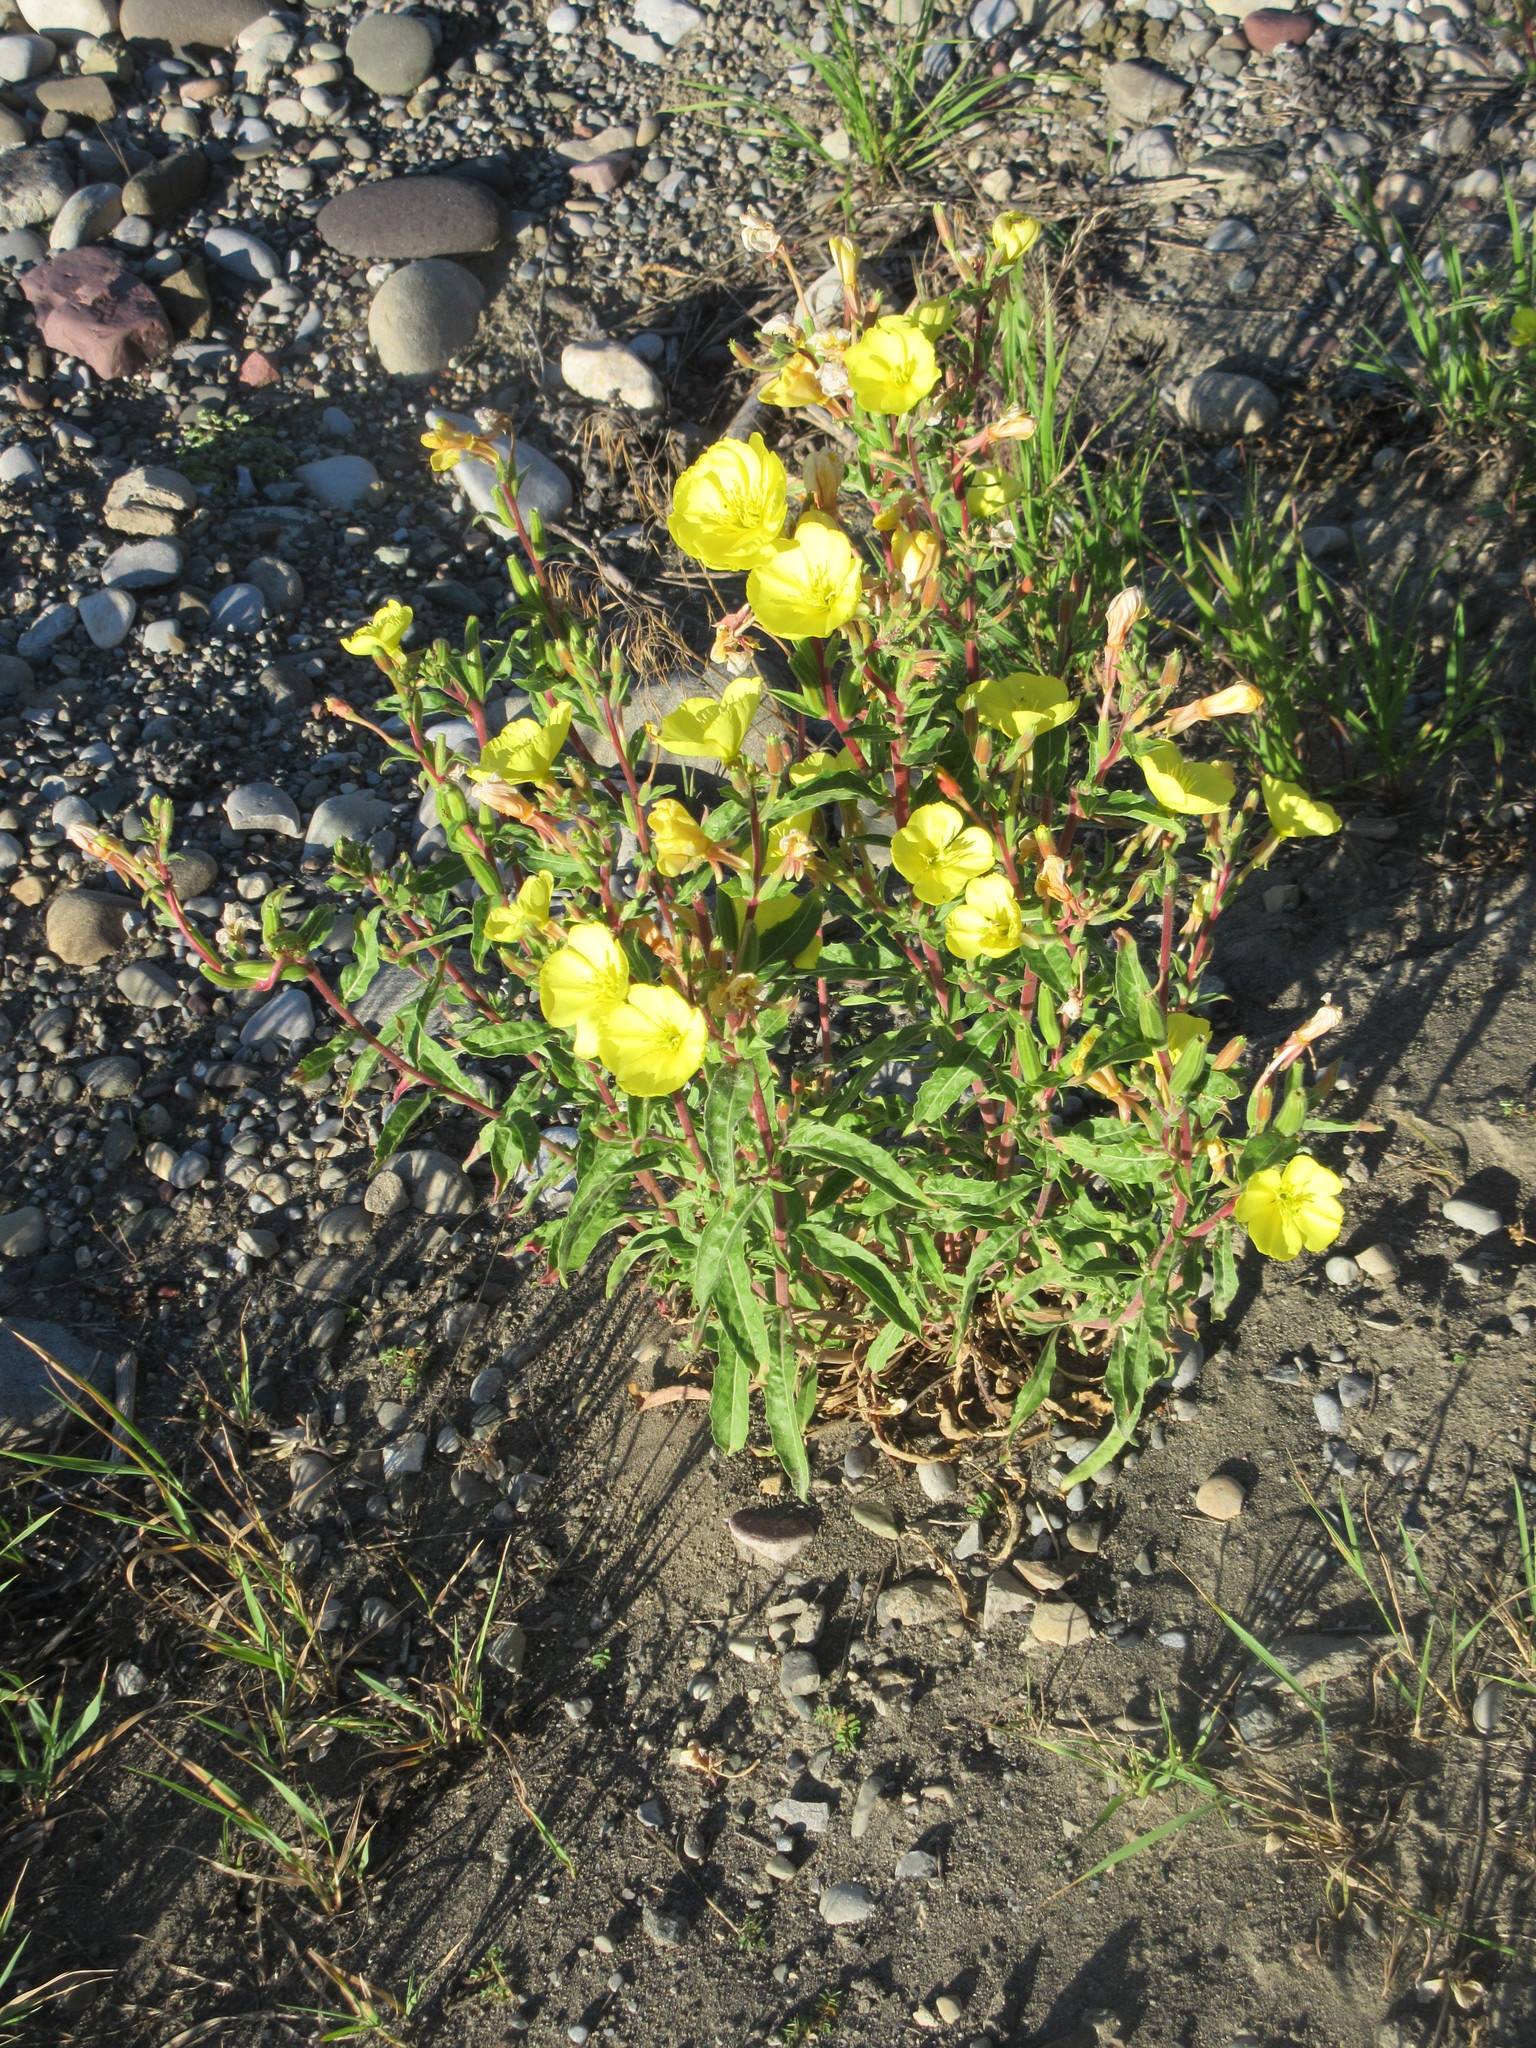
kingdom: Plantae
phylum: Tracheophyta
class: Magnoliopsida
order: Myrtales
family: Onagraceae
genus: Oenothera
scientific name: Oenothera biennis
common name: Common evening-primrose
